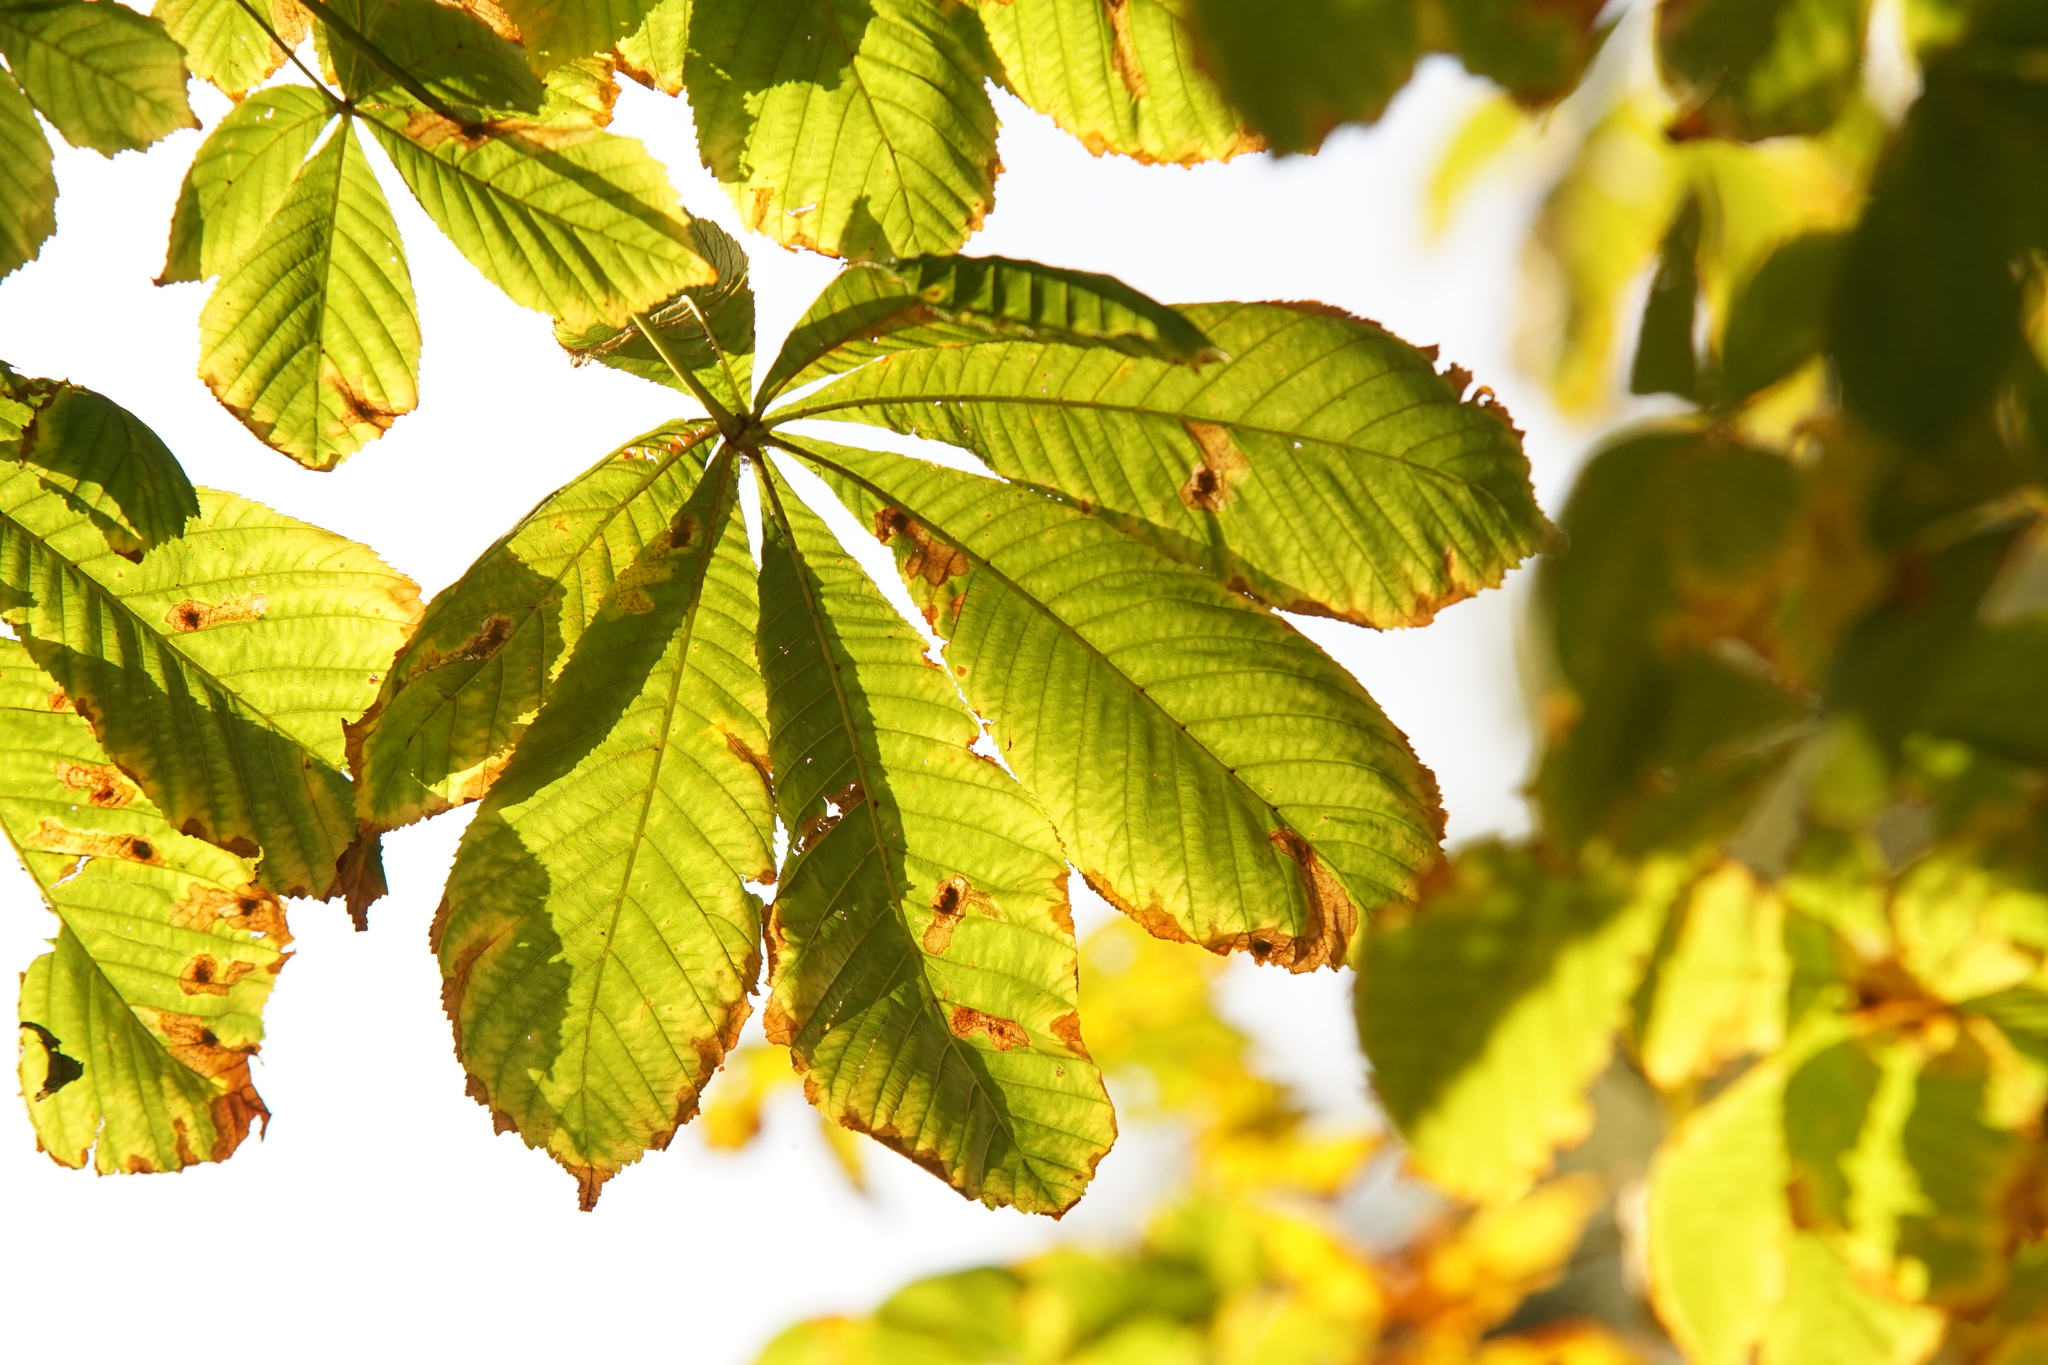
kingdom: Plantae
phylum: Tracheophyta
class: Magnoliopsida
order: Sapindales
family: Sapindaceae
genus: Aesculus
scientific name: Aesculus hippocastanum
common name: Horse-chestnut
